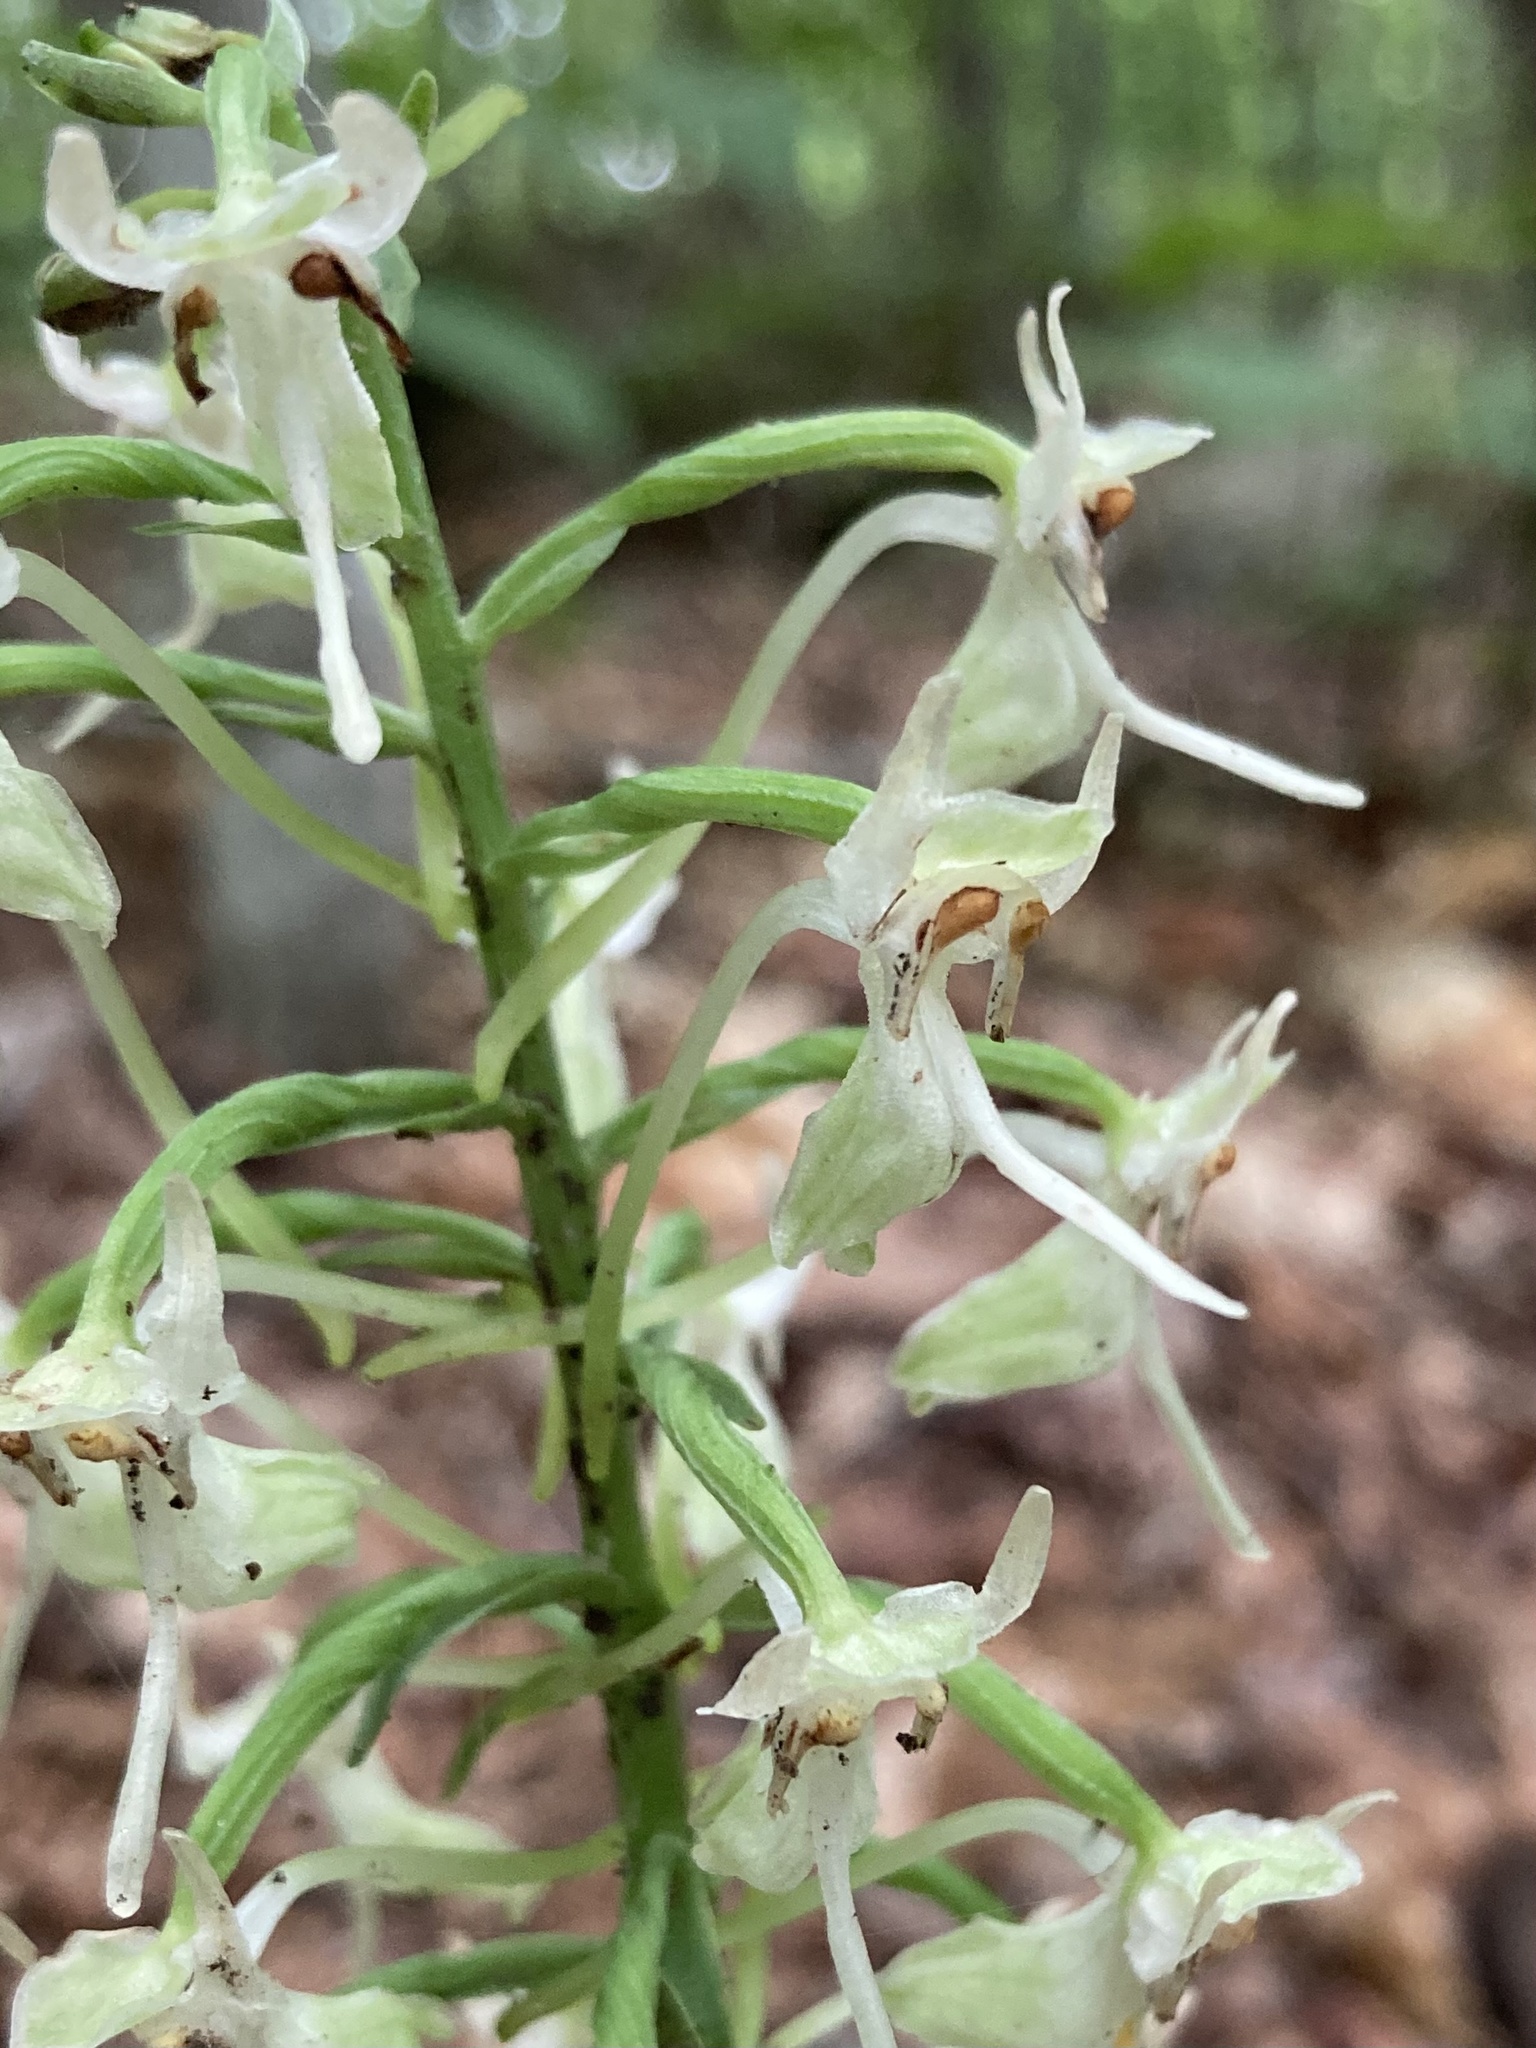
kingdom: Plantae
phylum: Tracheophyta
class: Liliopsida
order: Asparagales
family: Orchidaceae
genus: Platanthera
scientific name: Platanthera orbiculata
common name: Large round-leaved orchid
